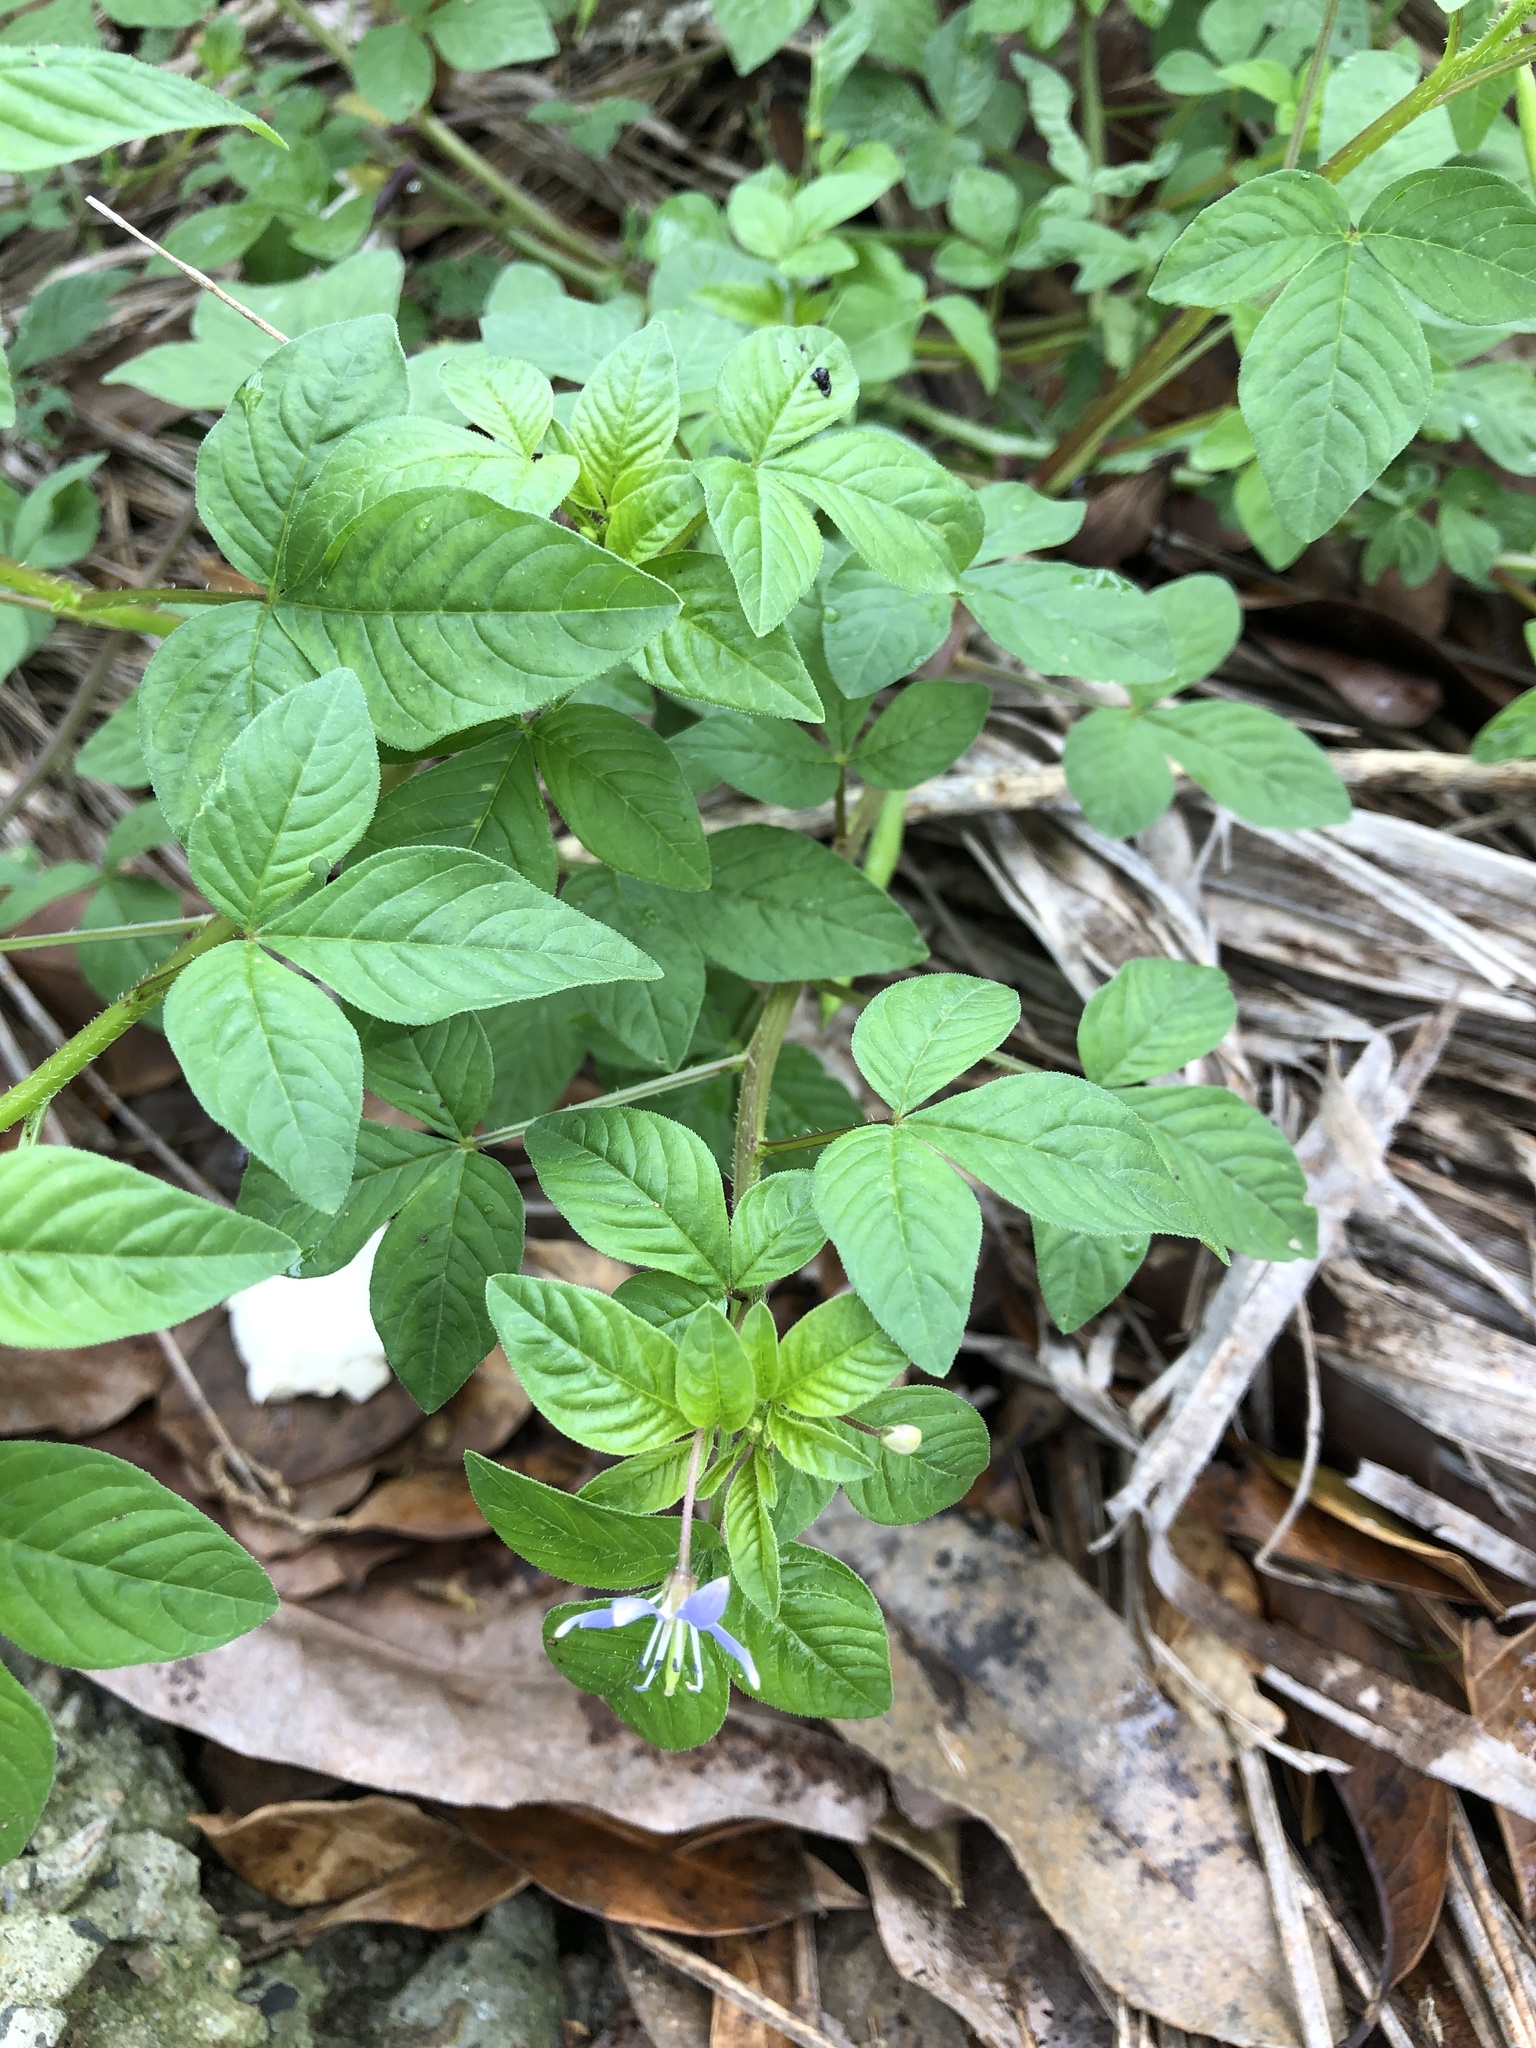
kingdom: Plantae
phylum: Tracheophyta
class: Magnoliopsida
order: Brassicales
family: Cleomaceae
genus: Sieruela
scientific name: Sieruela rutidosperma
